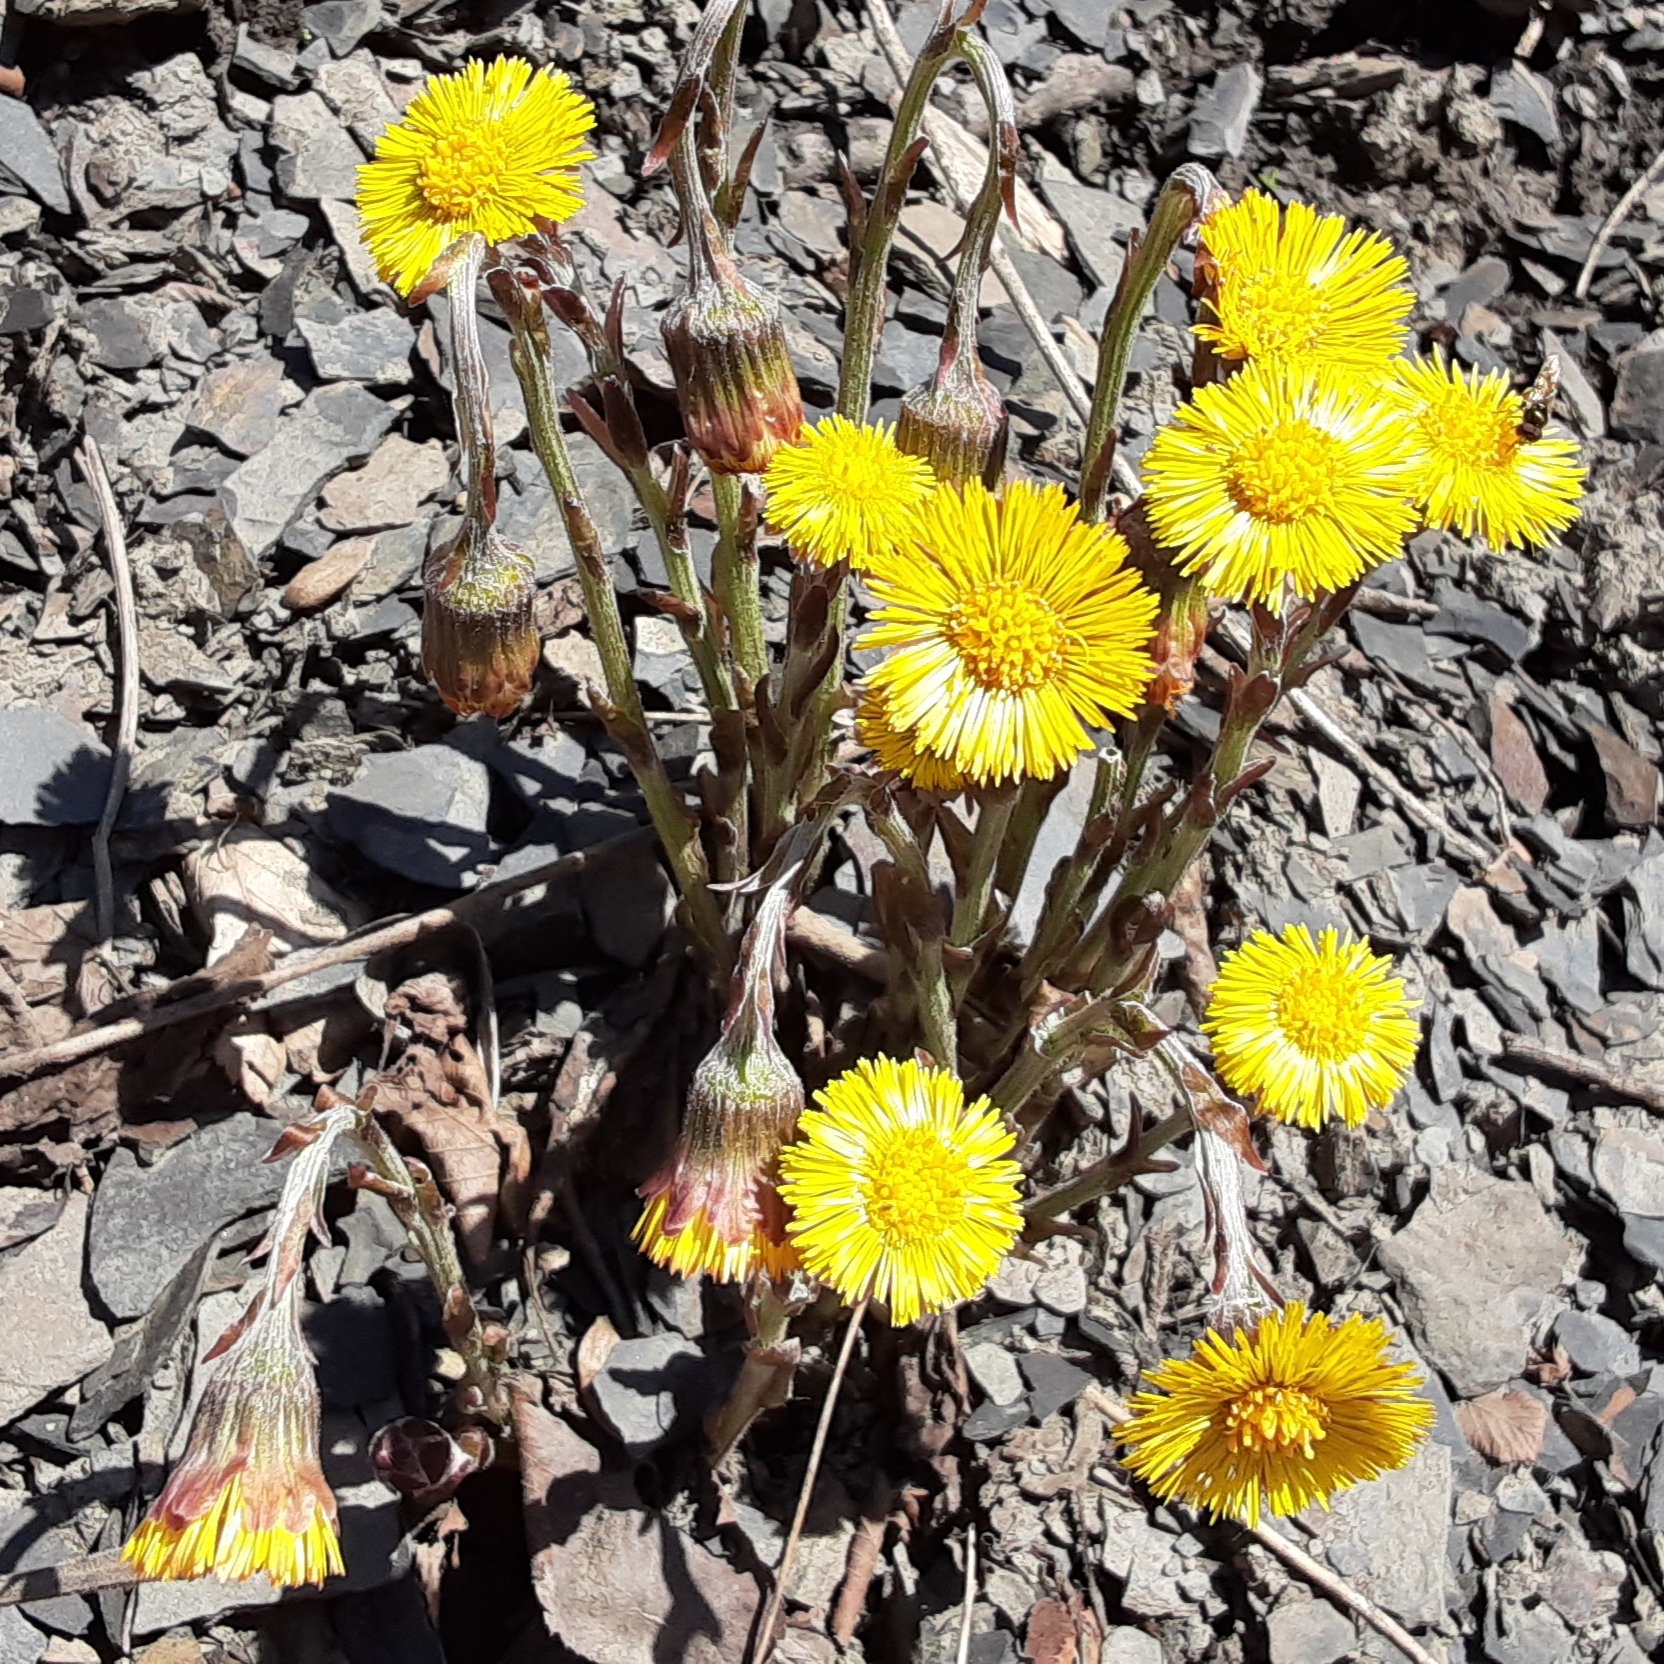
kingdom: Plantae
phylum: Tracheophyta
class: Magnoliopsida
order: Asterales
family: Asteraceae
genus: Tussilago
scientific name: Tussilago farfara
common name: Coltsfoot
